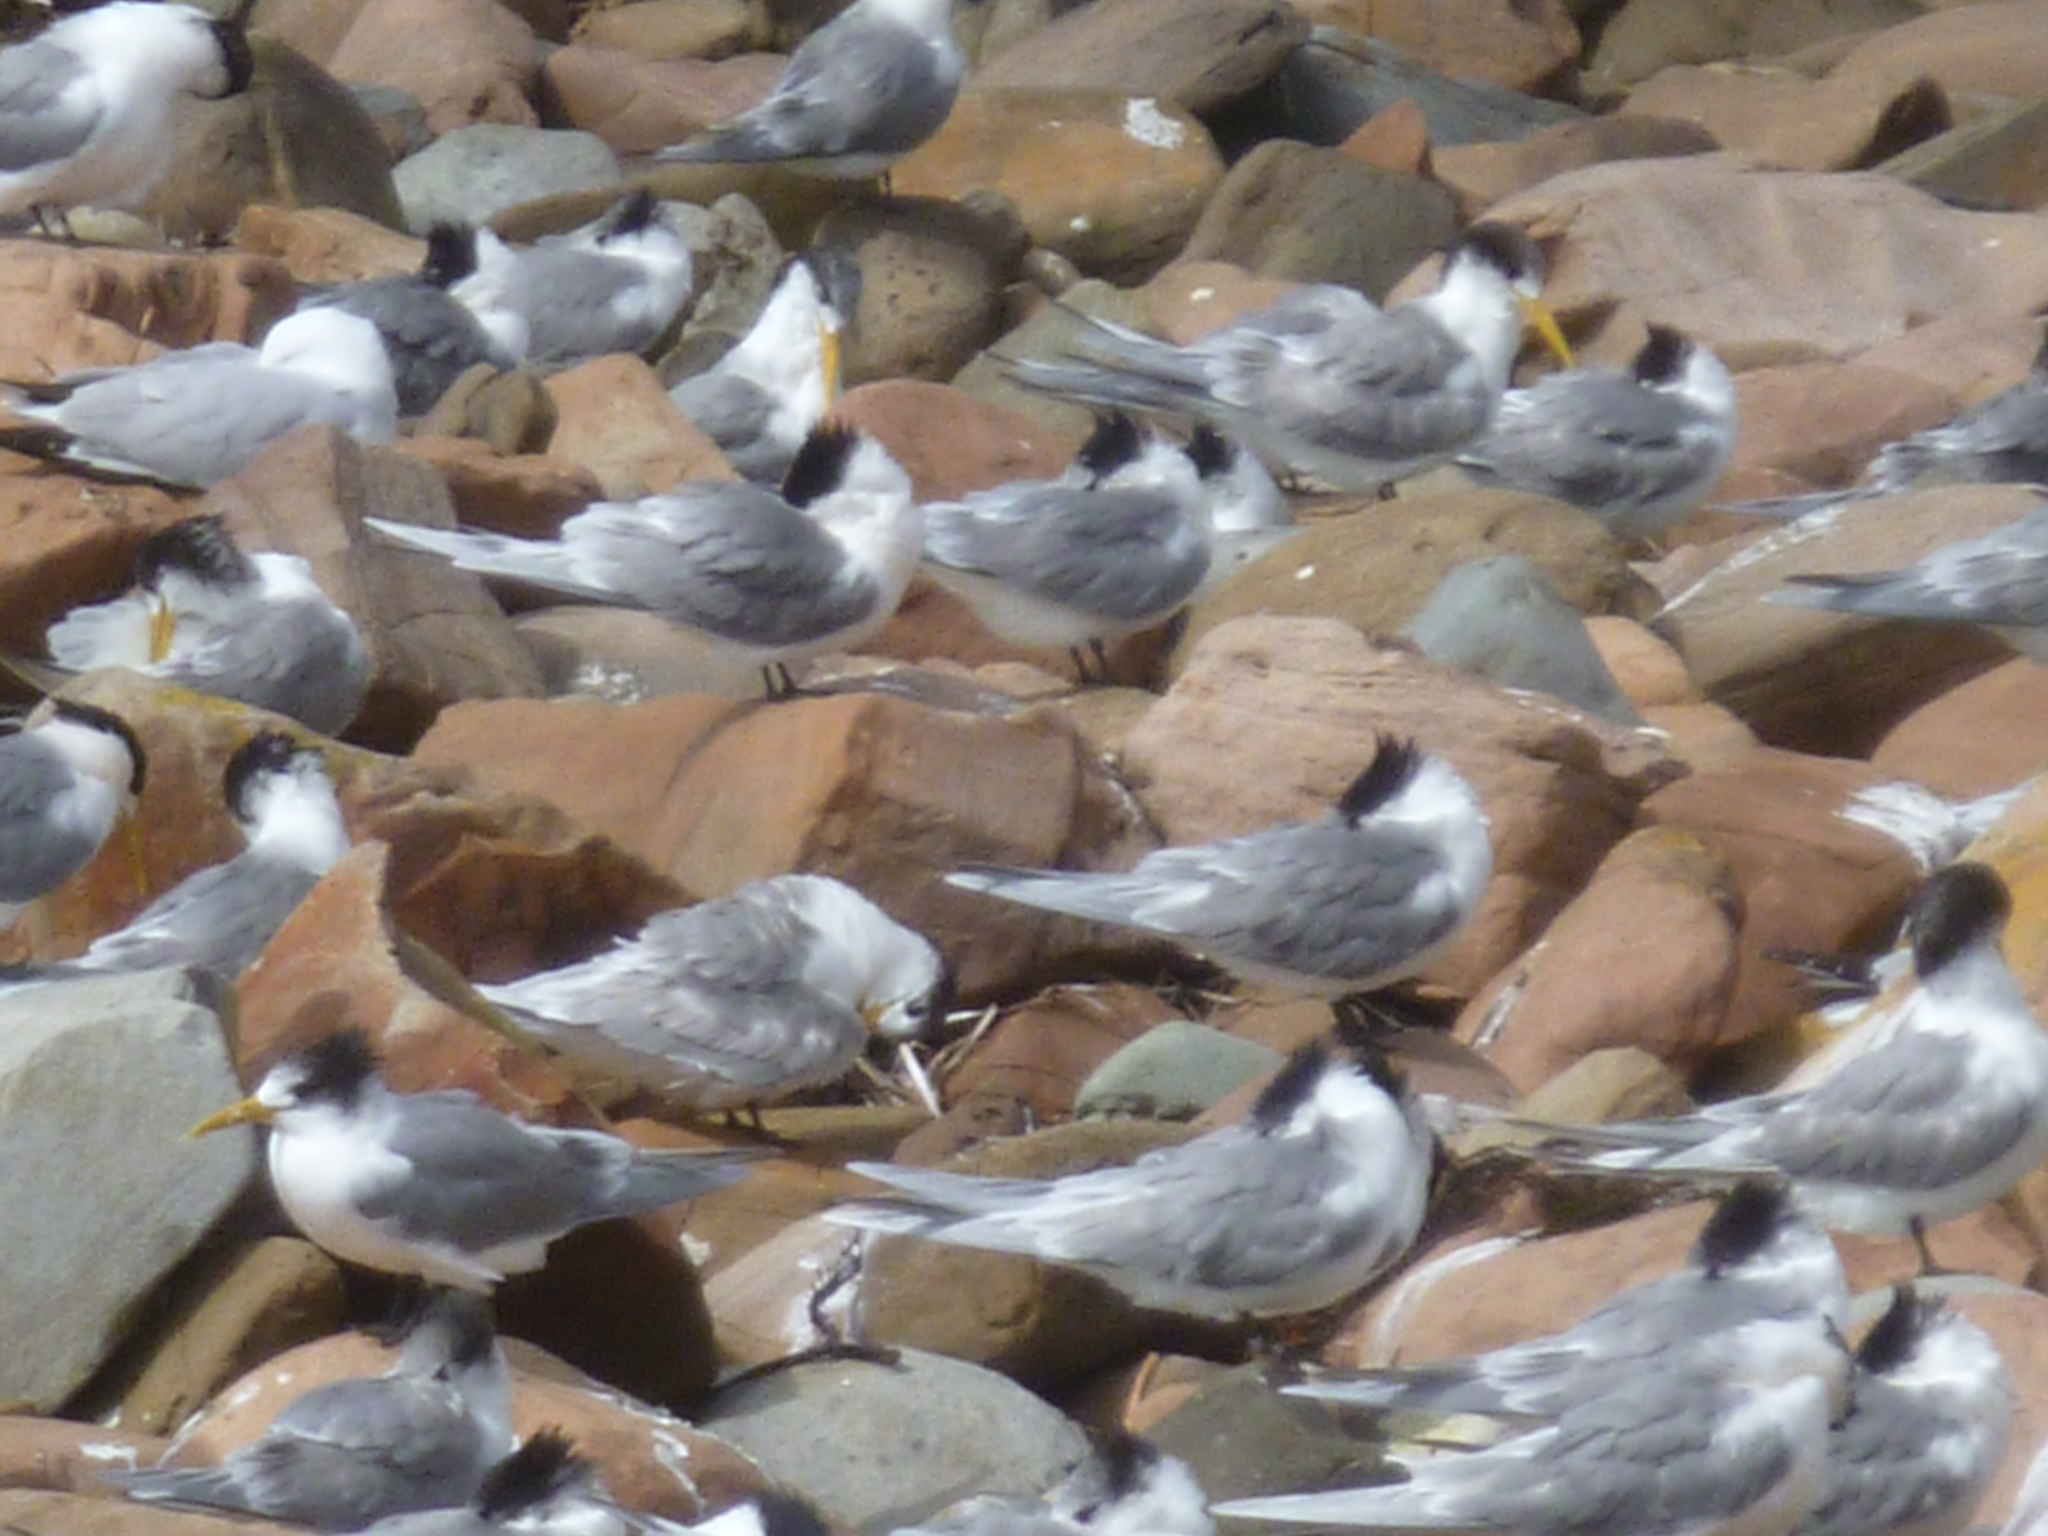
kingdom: Animalia
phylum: Chordata
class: Aves
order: Charadriiformes
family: Laridae
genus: Thalasseus
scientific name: Thalasseus bergii
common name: Greater crested tern
